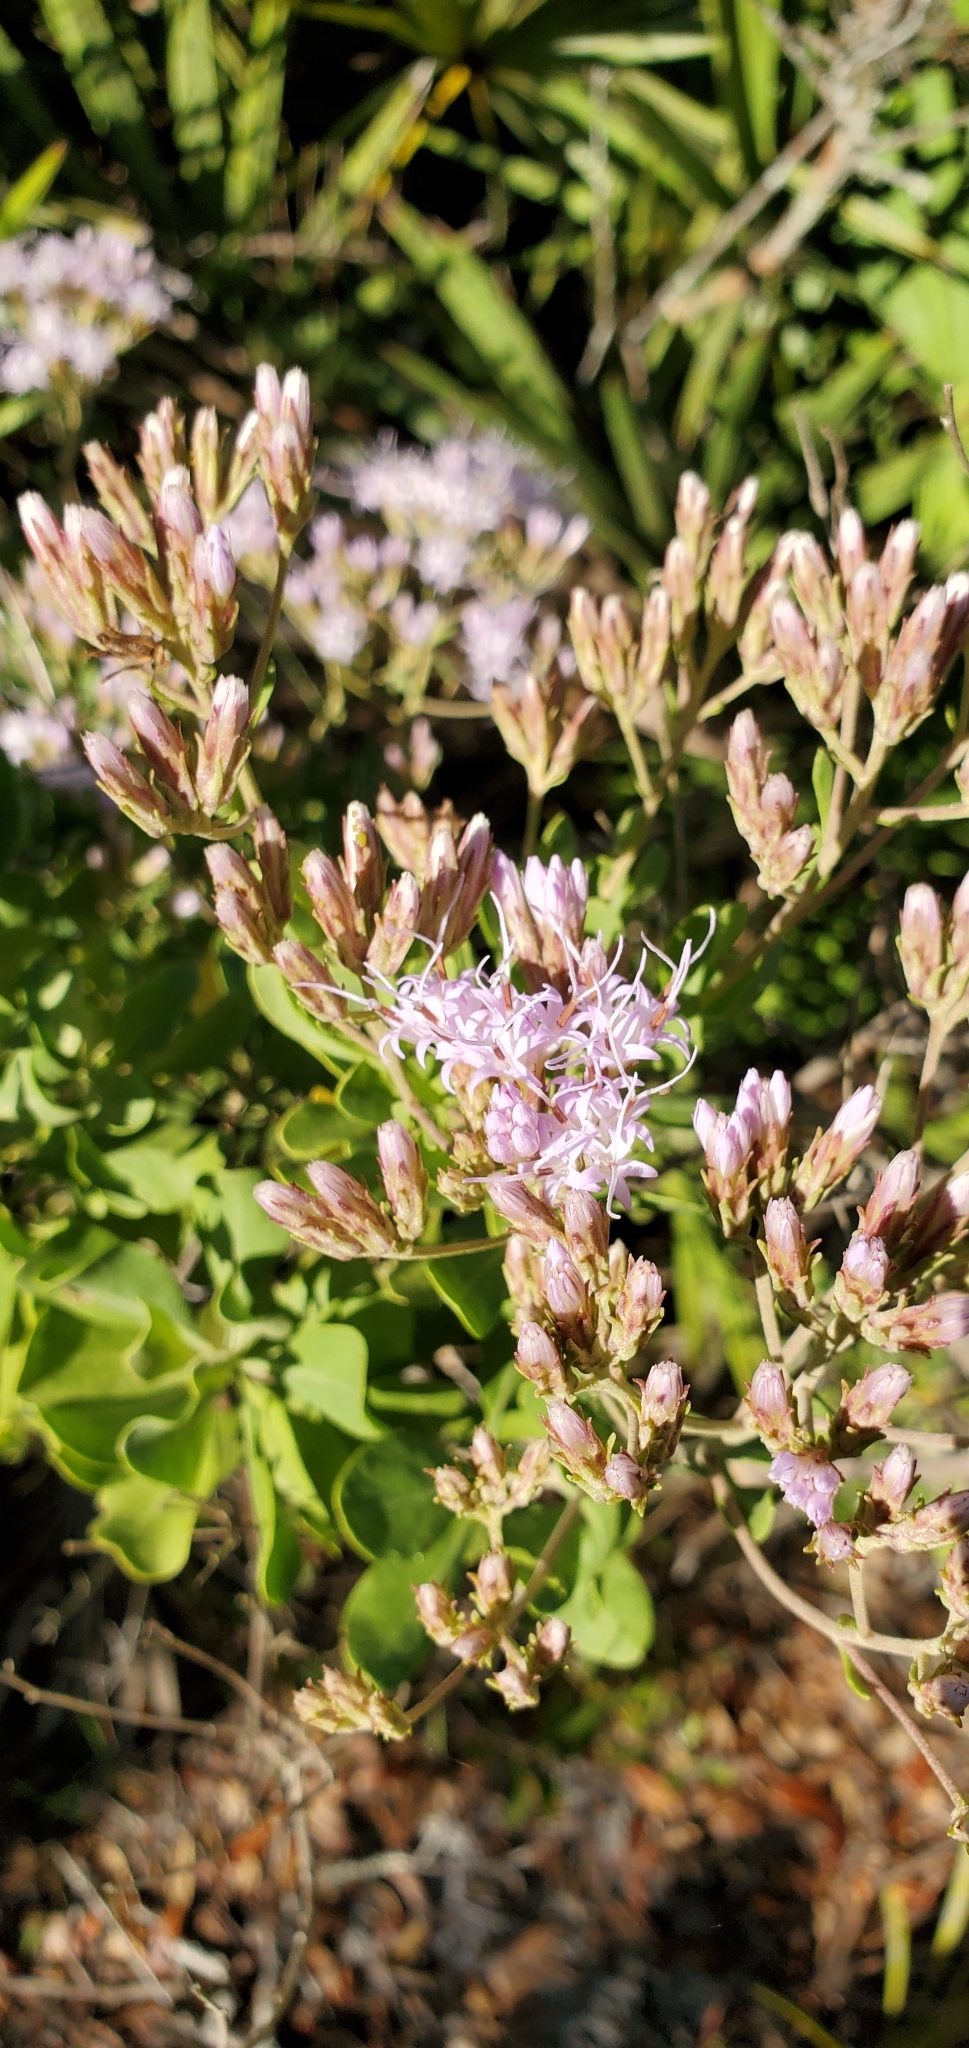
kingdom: Plantae
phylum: Tracheophyta
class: Magnoliopsida
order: Asterales
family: Asteraceae
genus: Garberia
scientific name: Garberia heterophylla
